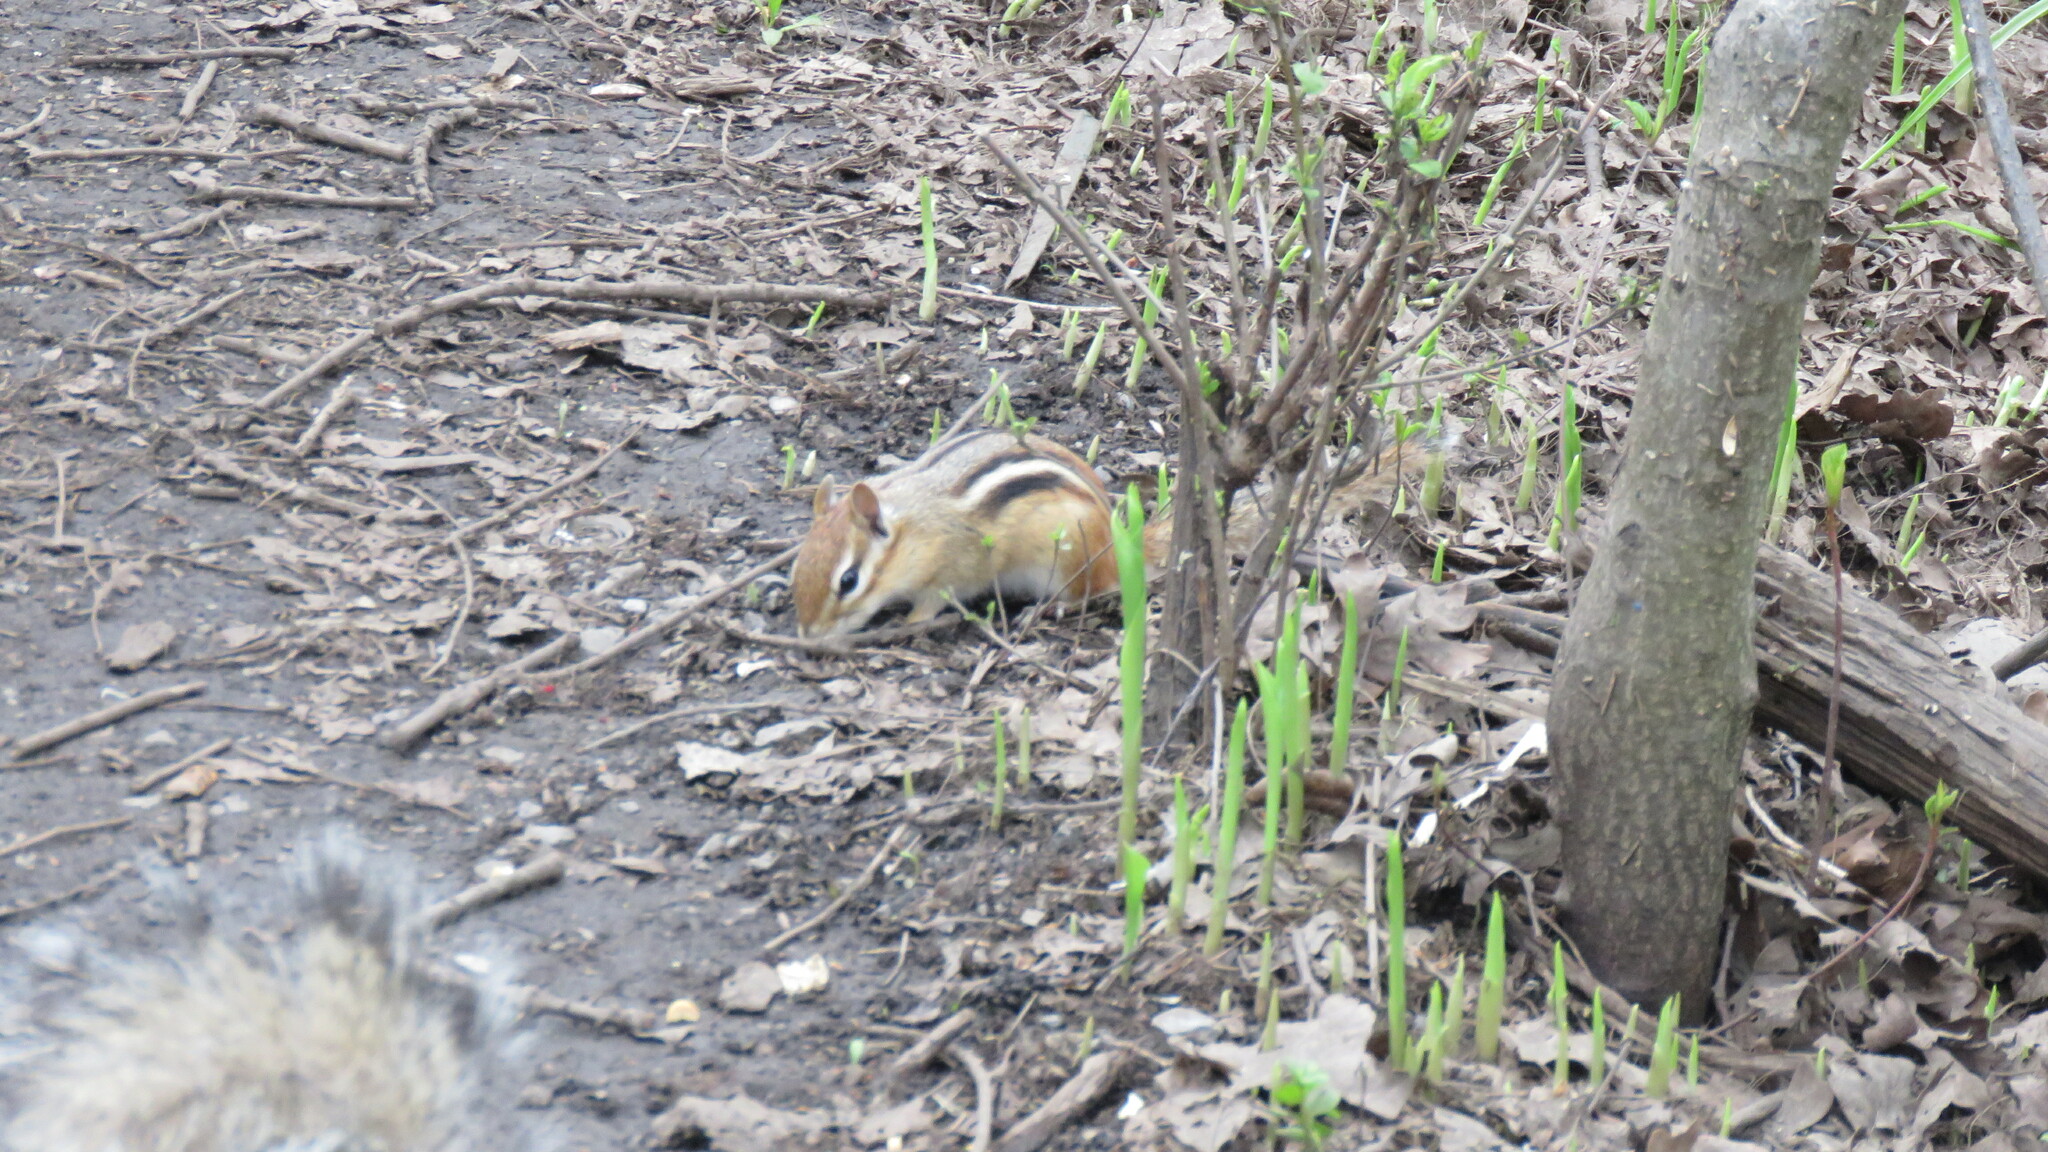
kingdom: Animalia
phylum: Chordata
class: Mammalia
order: Rodentia
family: Sciuridae
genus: Tamias
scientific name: Tamias striatus
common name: Eastern chipmunk
